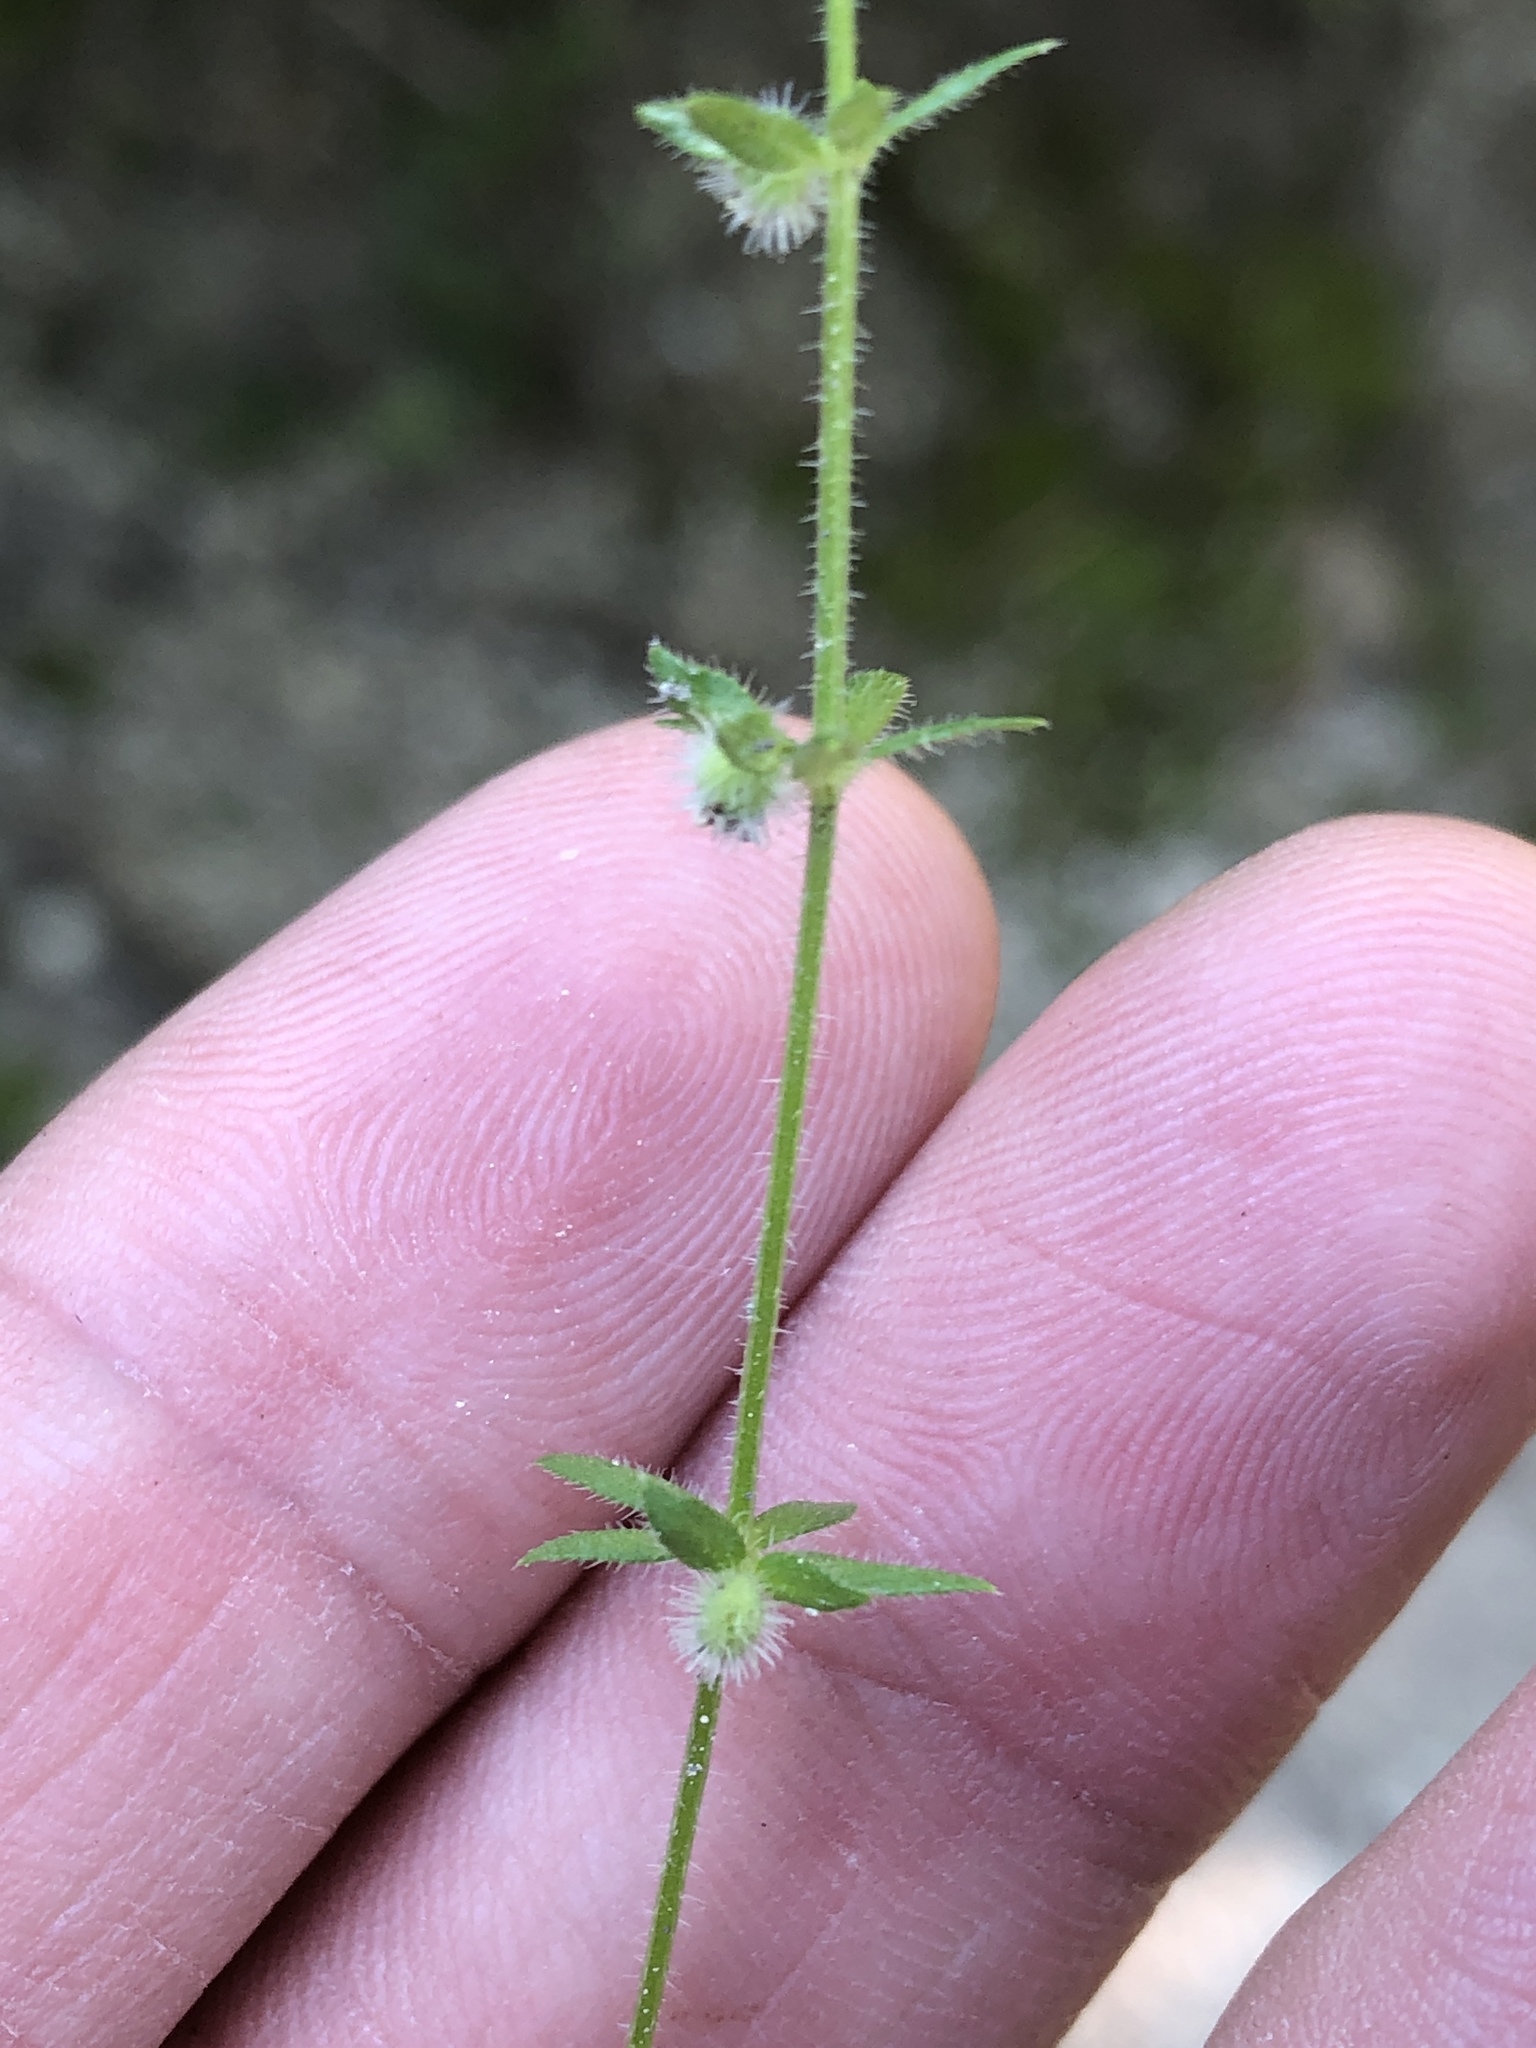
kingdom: Plantae
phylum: Tracheophyta
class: Magnoliopsida
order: Gentianales
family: Rubiaceae
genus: Galium
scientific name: Galium virgatum
